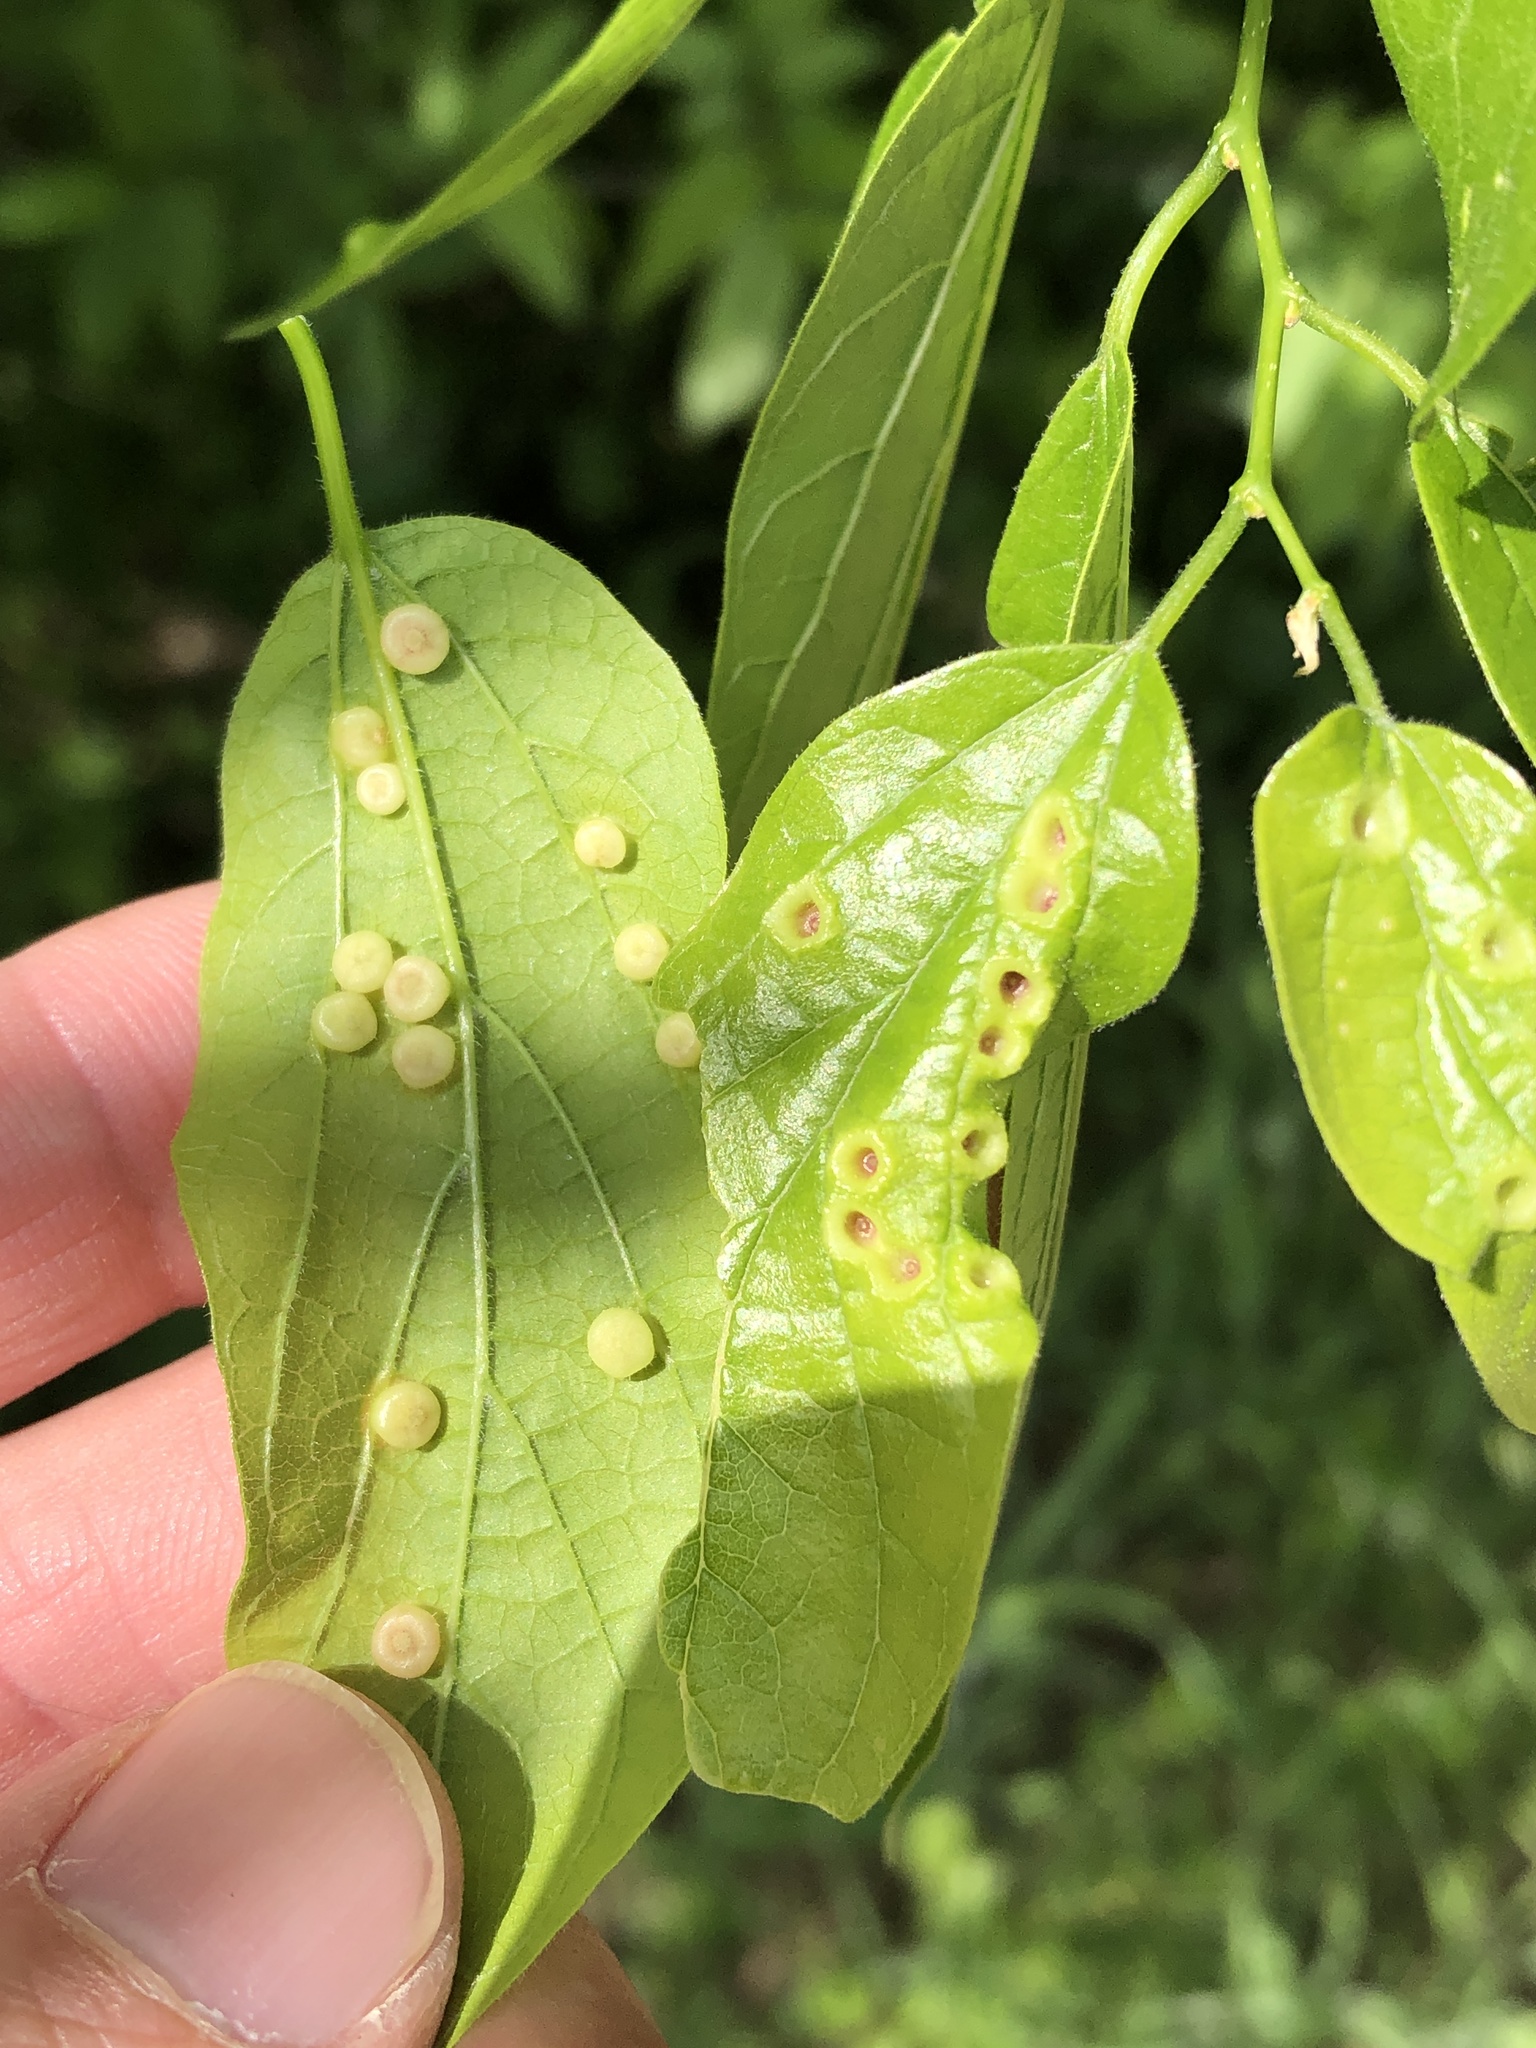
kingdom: Animalia
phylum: Arthropoda
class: Insecta
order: Hemiptera
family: Aphalaridae
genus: Pachypsylla
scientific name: Pachypsylla celtidismamma
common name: Hackberry nipplegall psyllid
